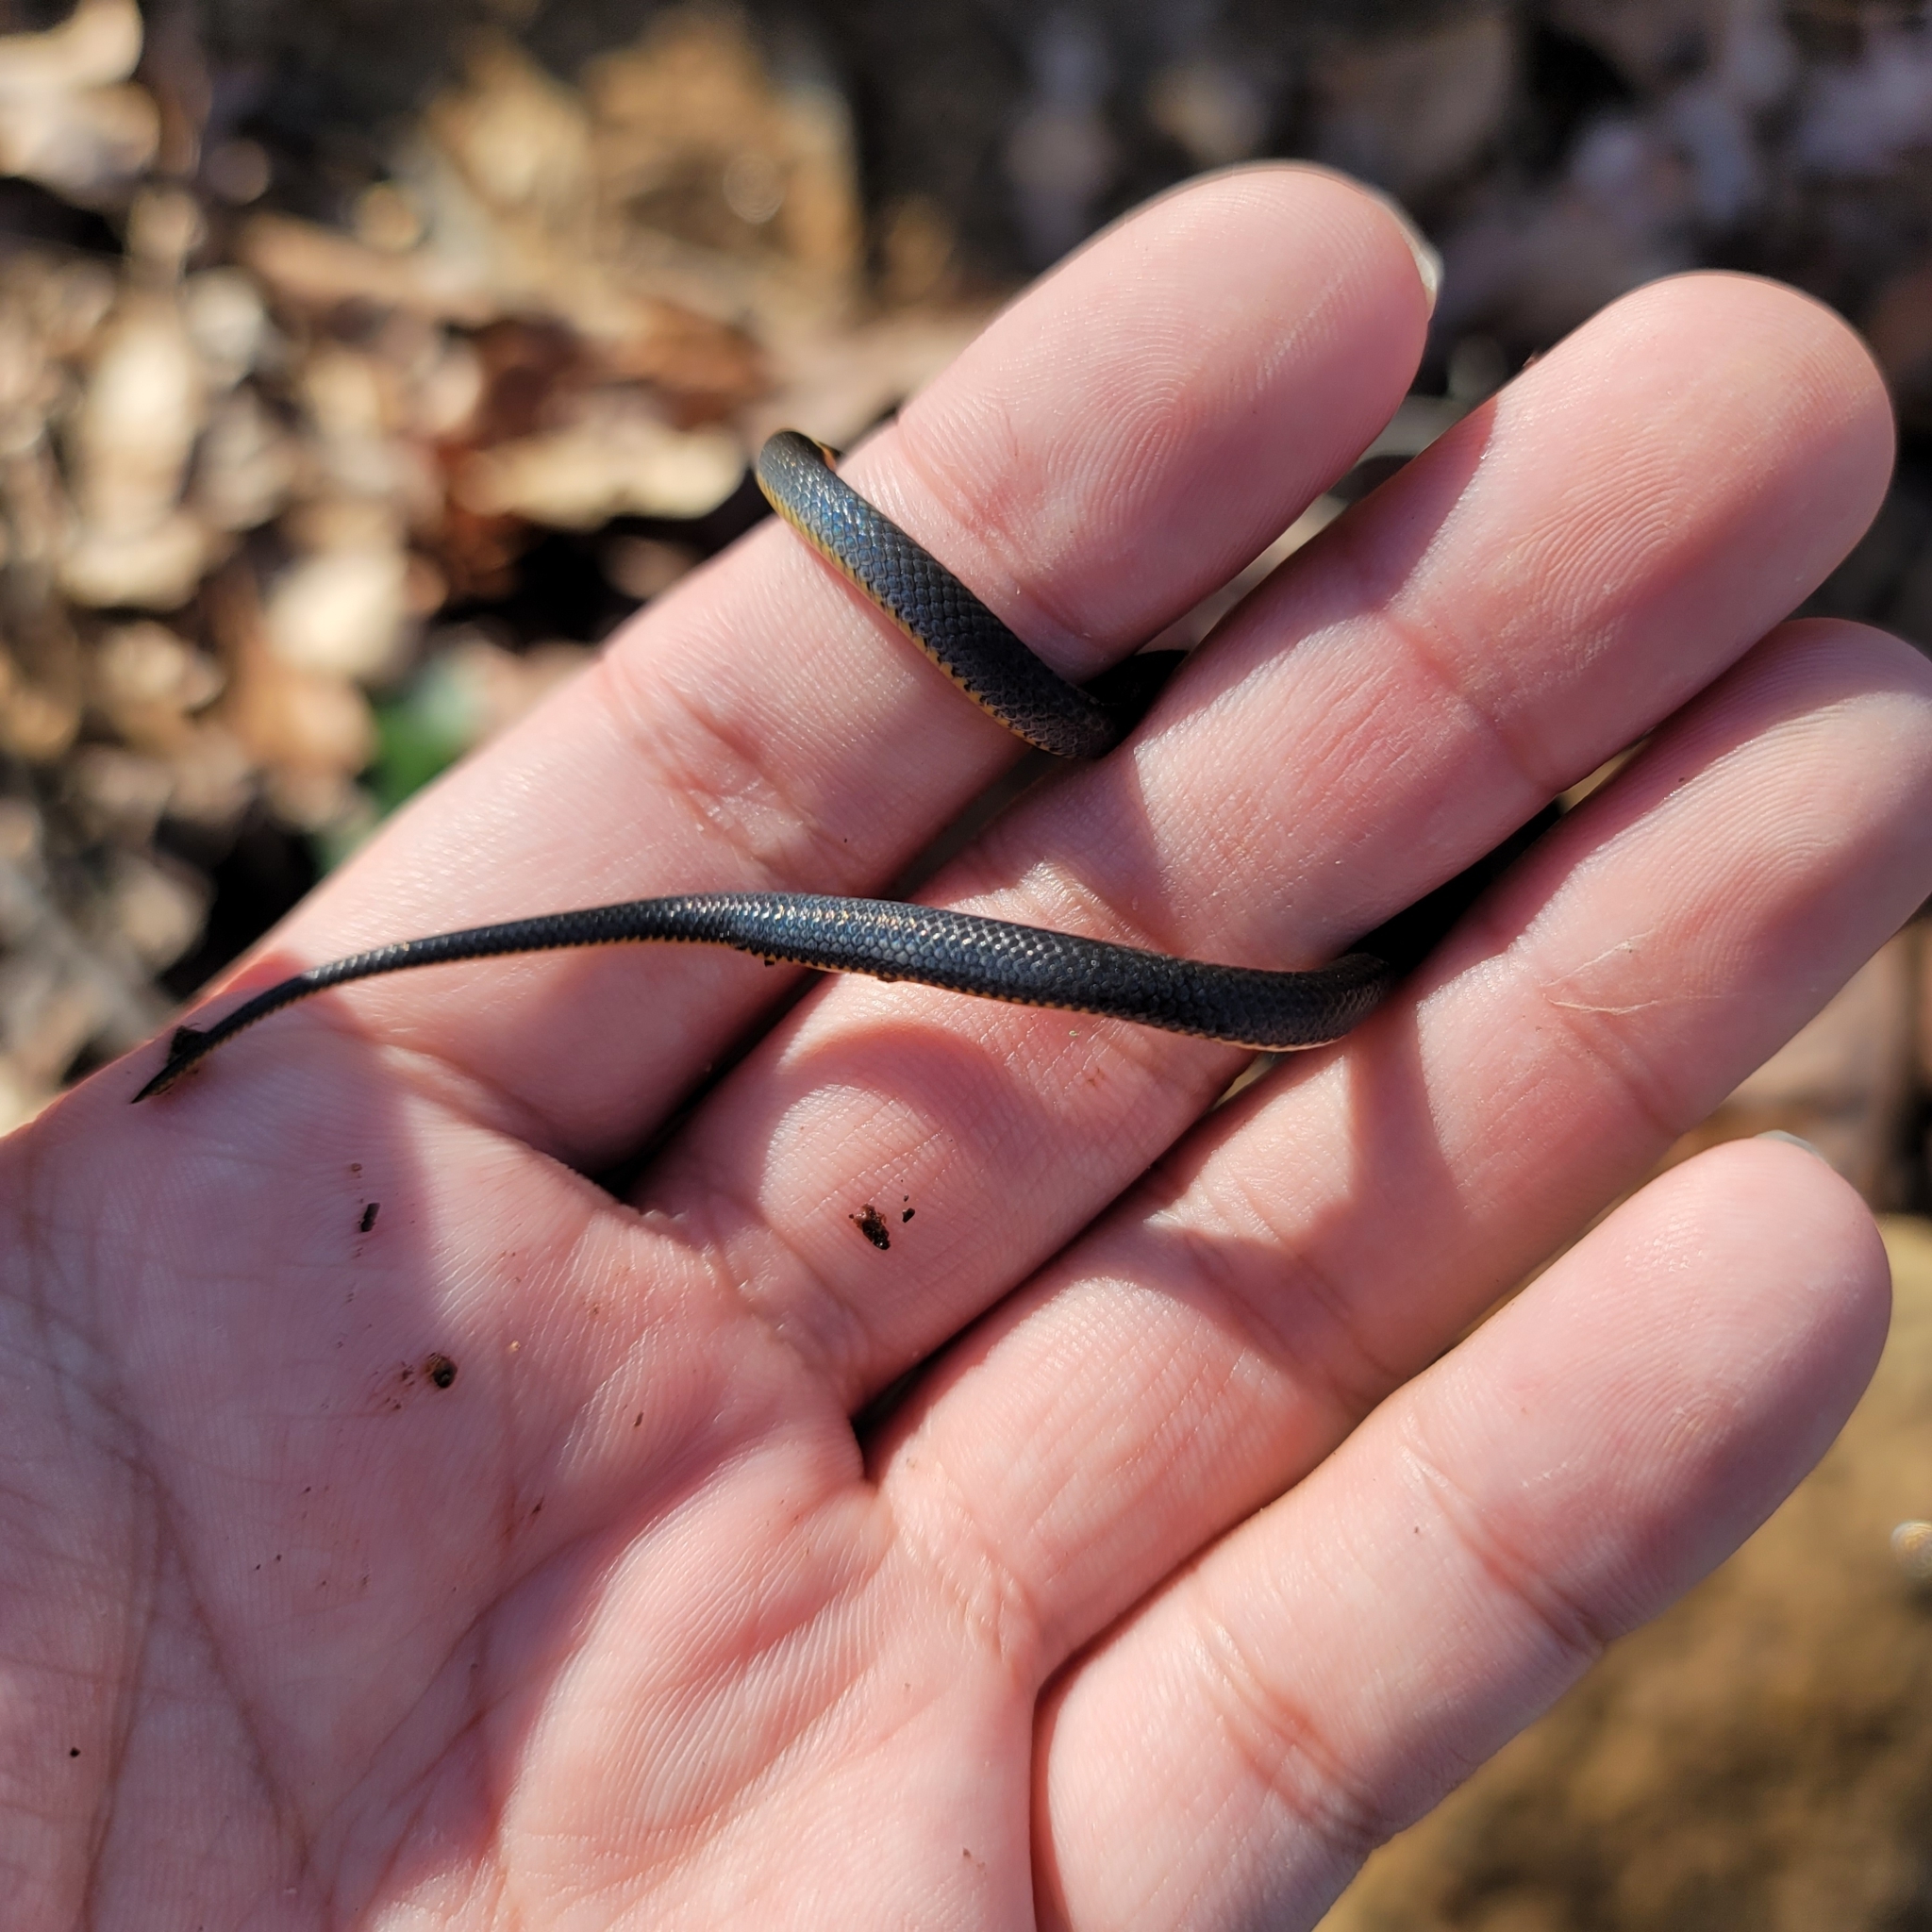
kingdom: Animalia
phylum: Chordata
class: Squamata
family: Colubridae
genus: Diadophis
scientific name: Diadophis punctatus
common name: Ringneck snake
